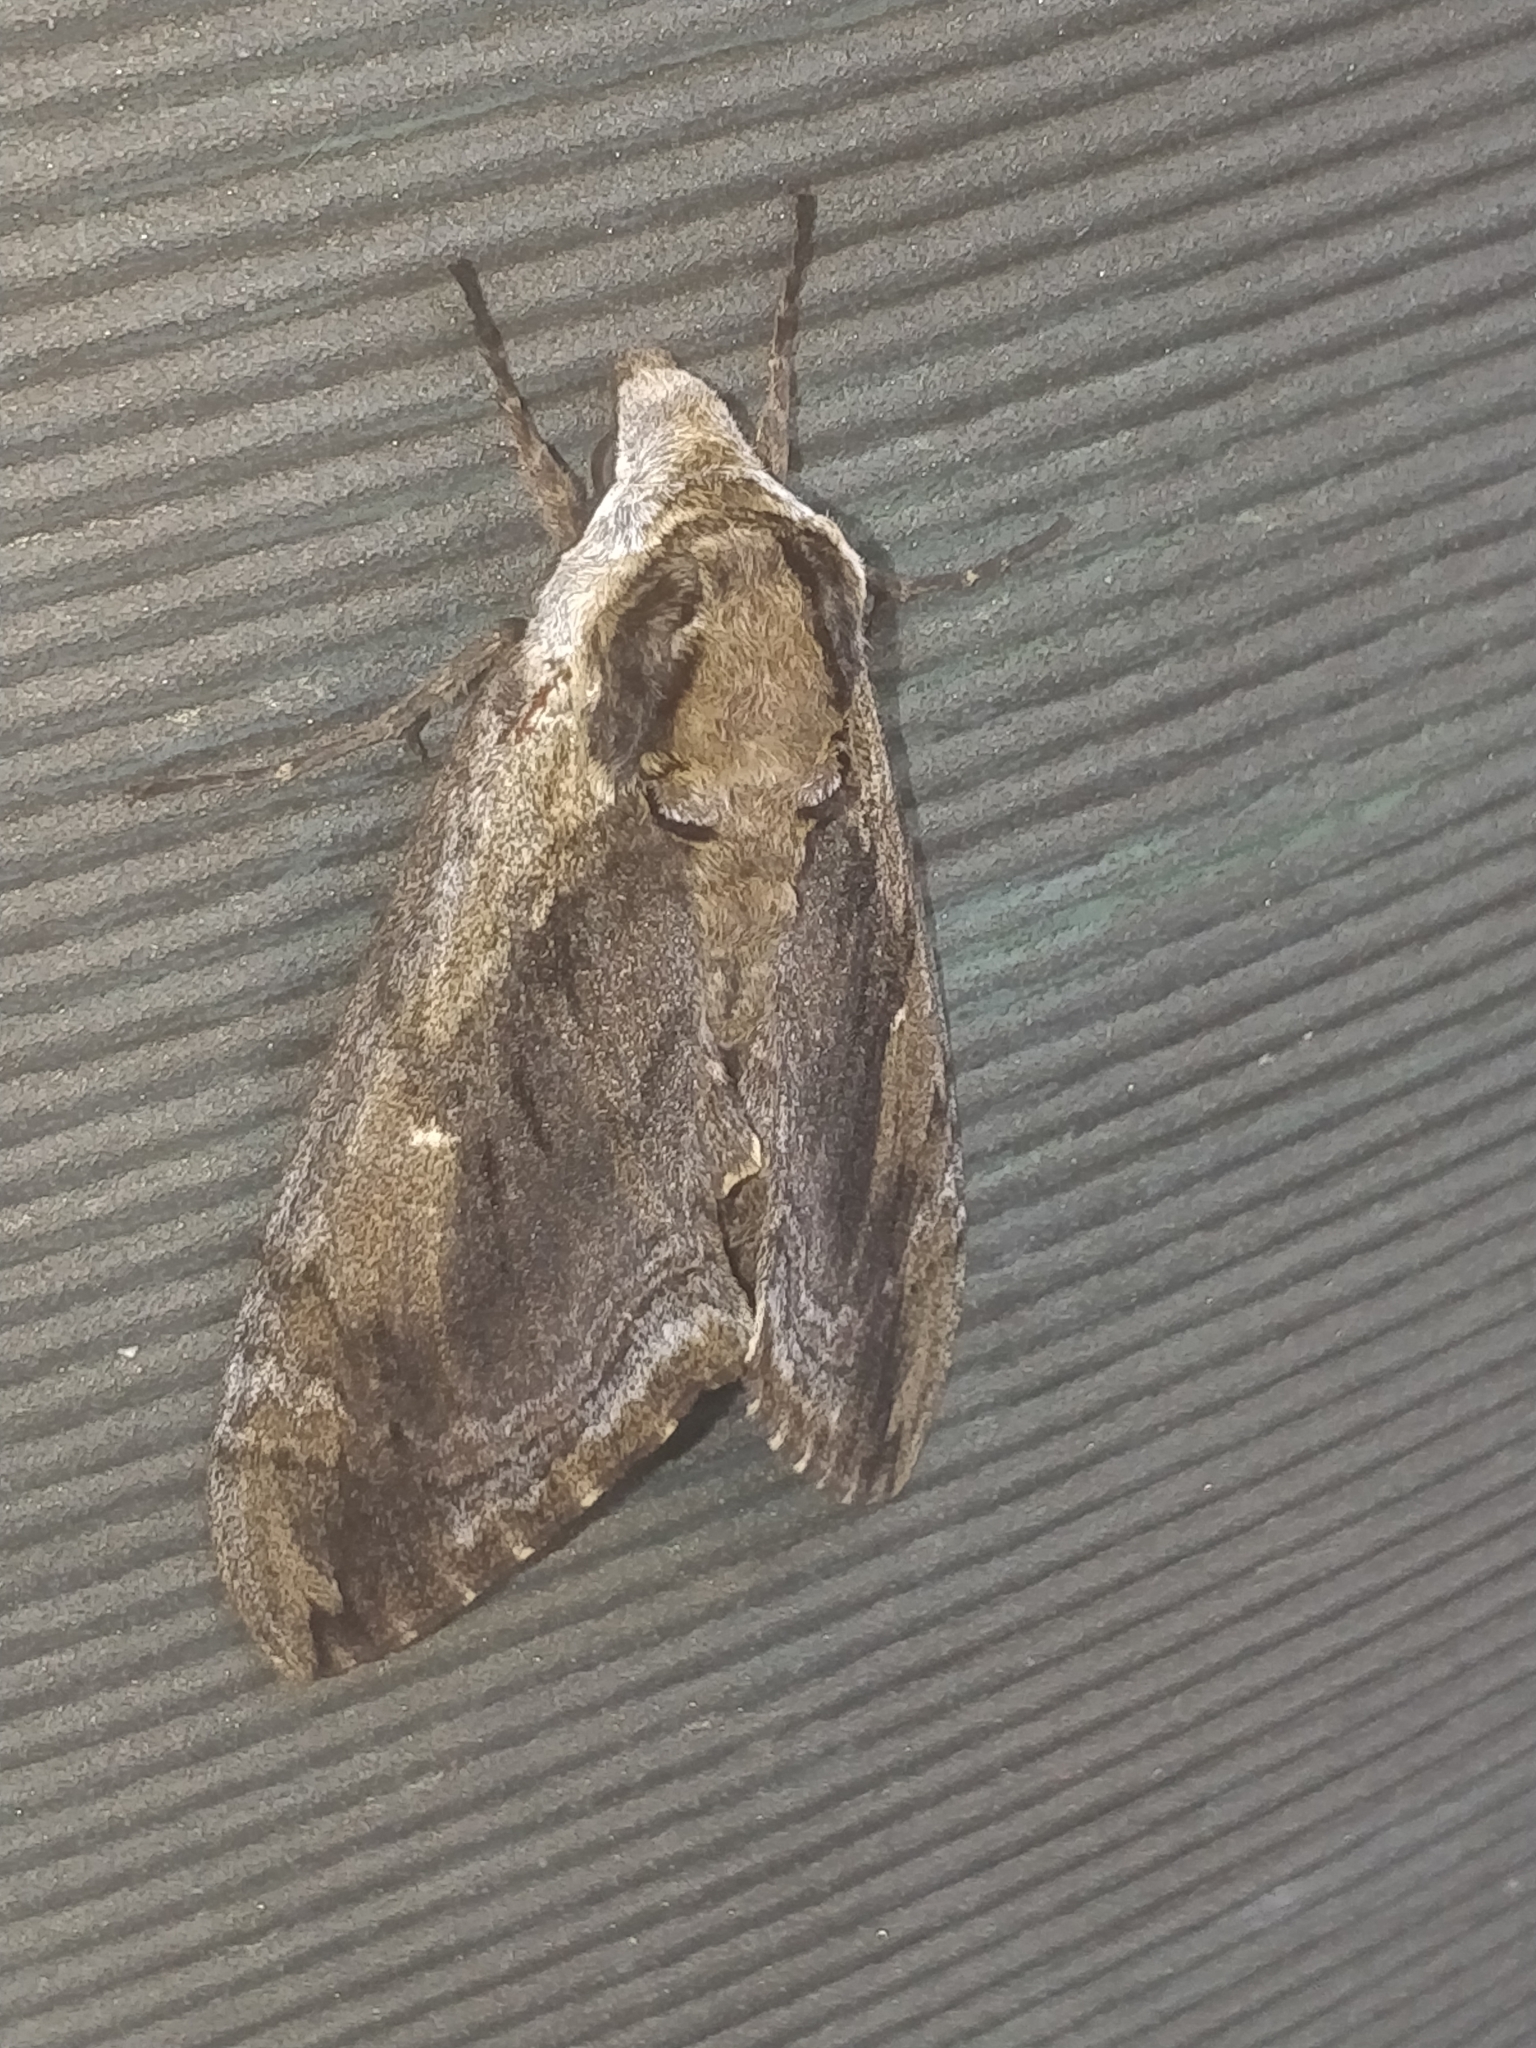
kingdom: Animalia
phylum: Arthropoda
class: Insecta
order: Lepidoptera
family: Sphingidae
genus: Ceratomia
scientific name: Ceratomia amyntor
